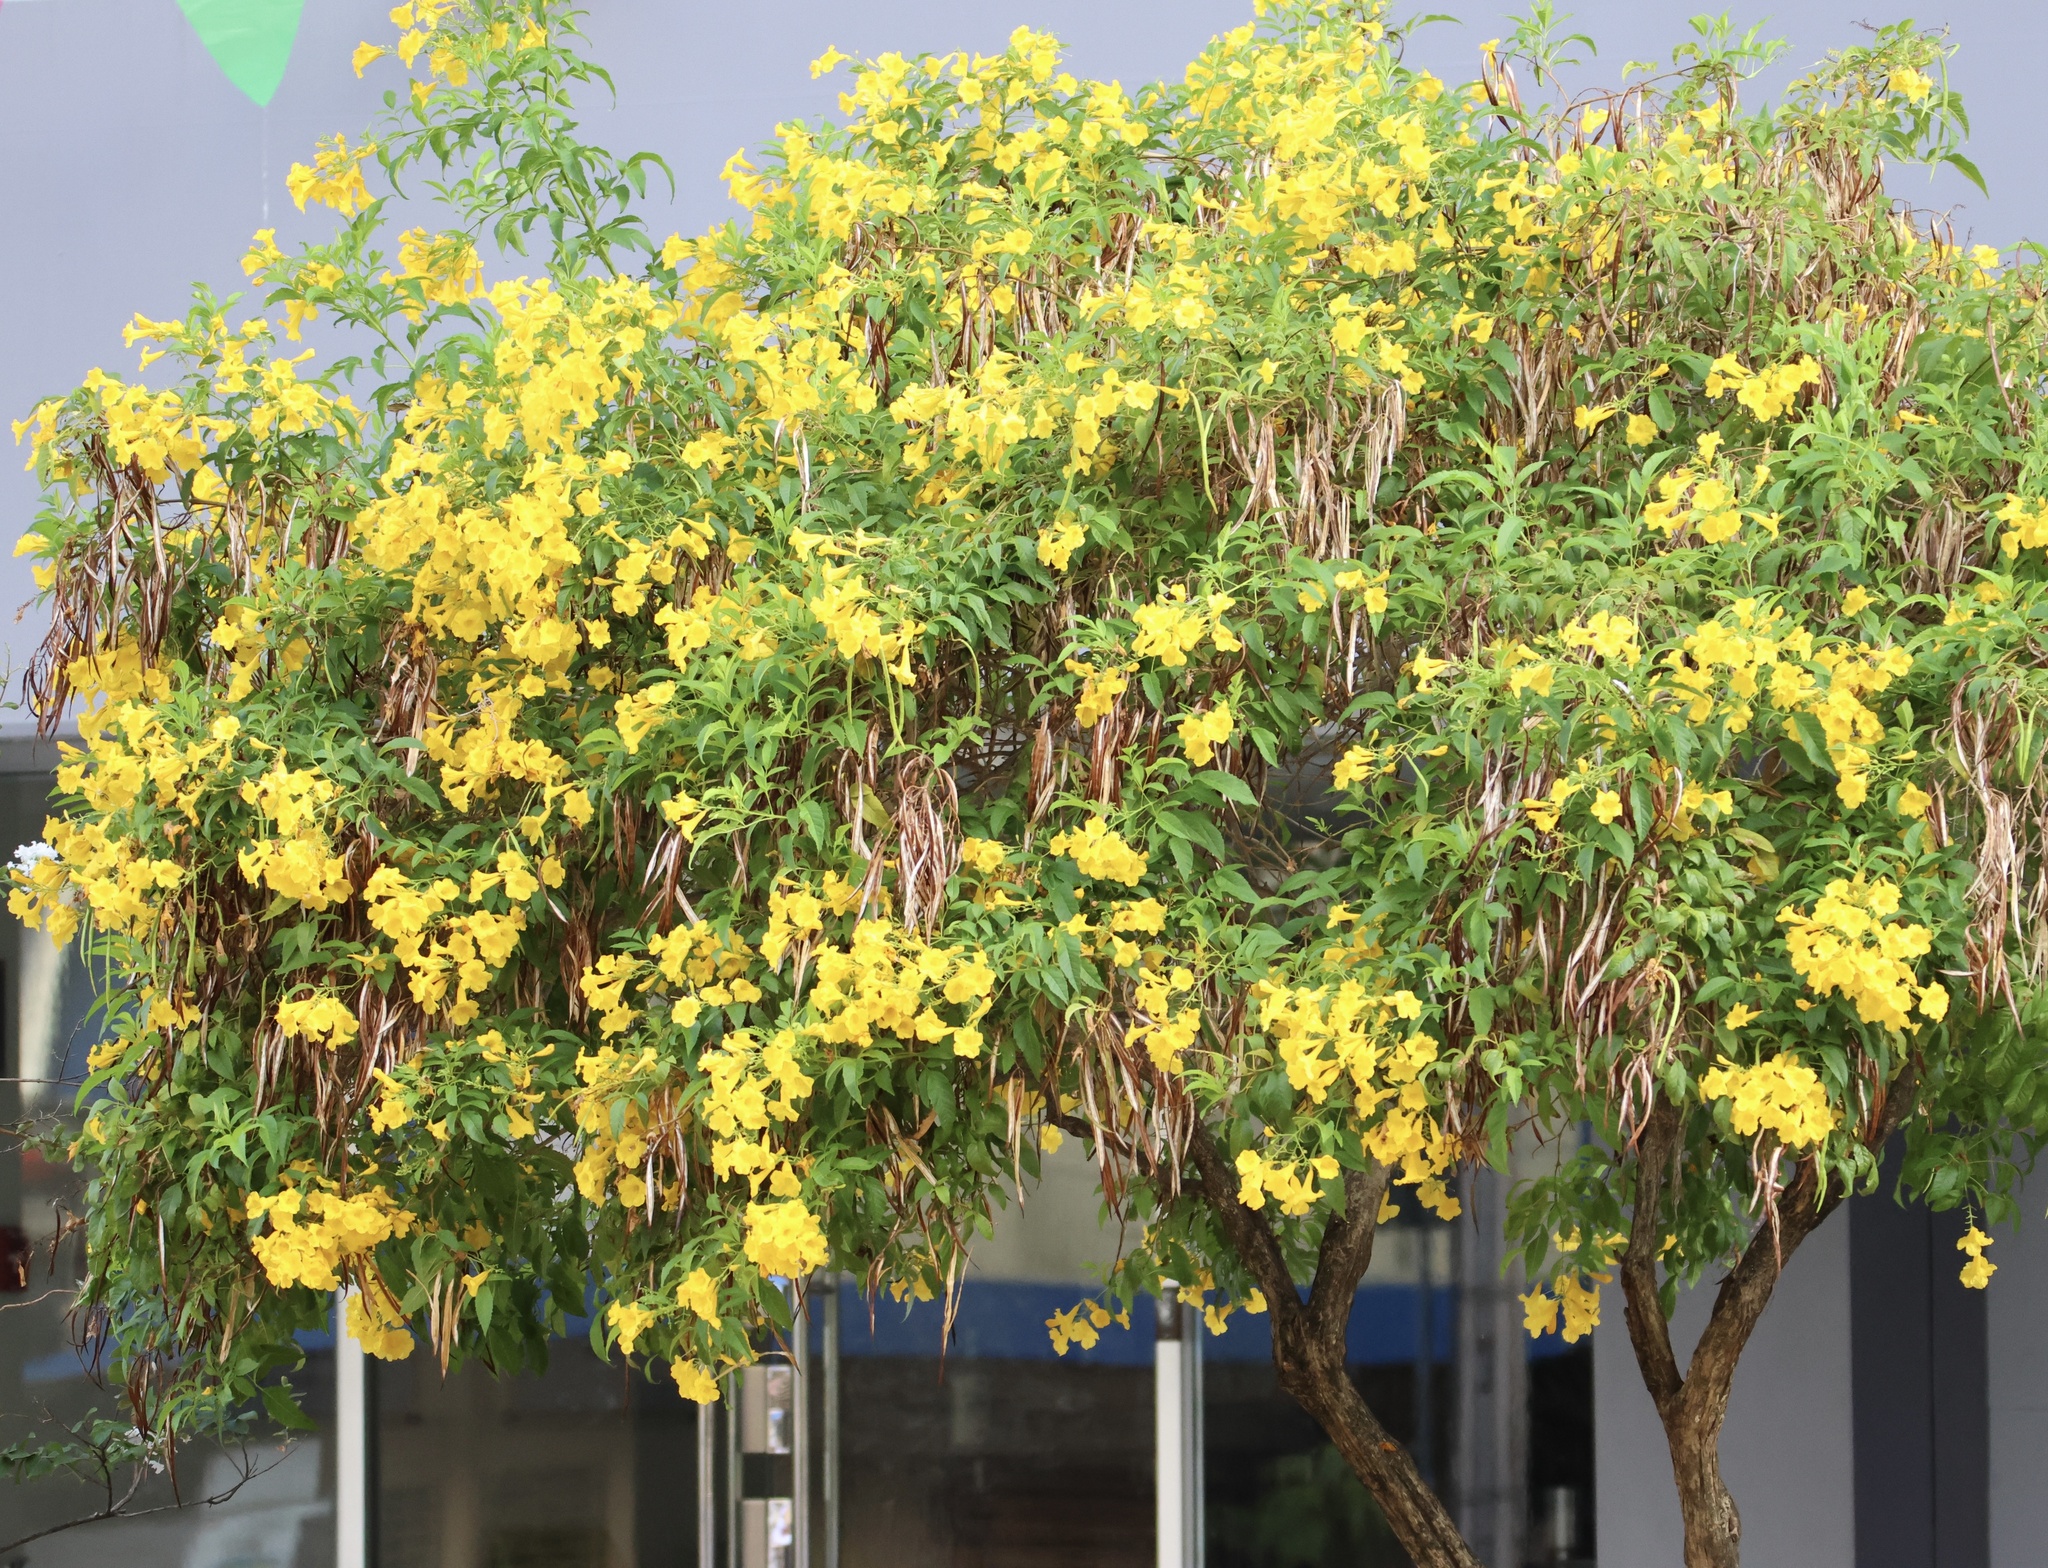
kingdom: Plantae
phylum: Tracheophyta
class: Magnoliopsida
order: Lamiales
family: Bignoniaceae
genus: Tecoma
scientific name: Tecoma stans
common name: Yellow trumpetbush
